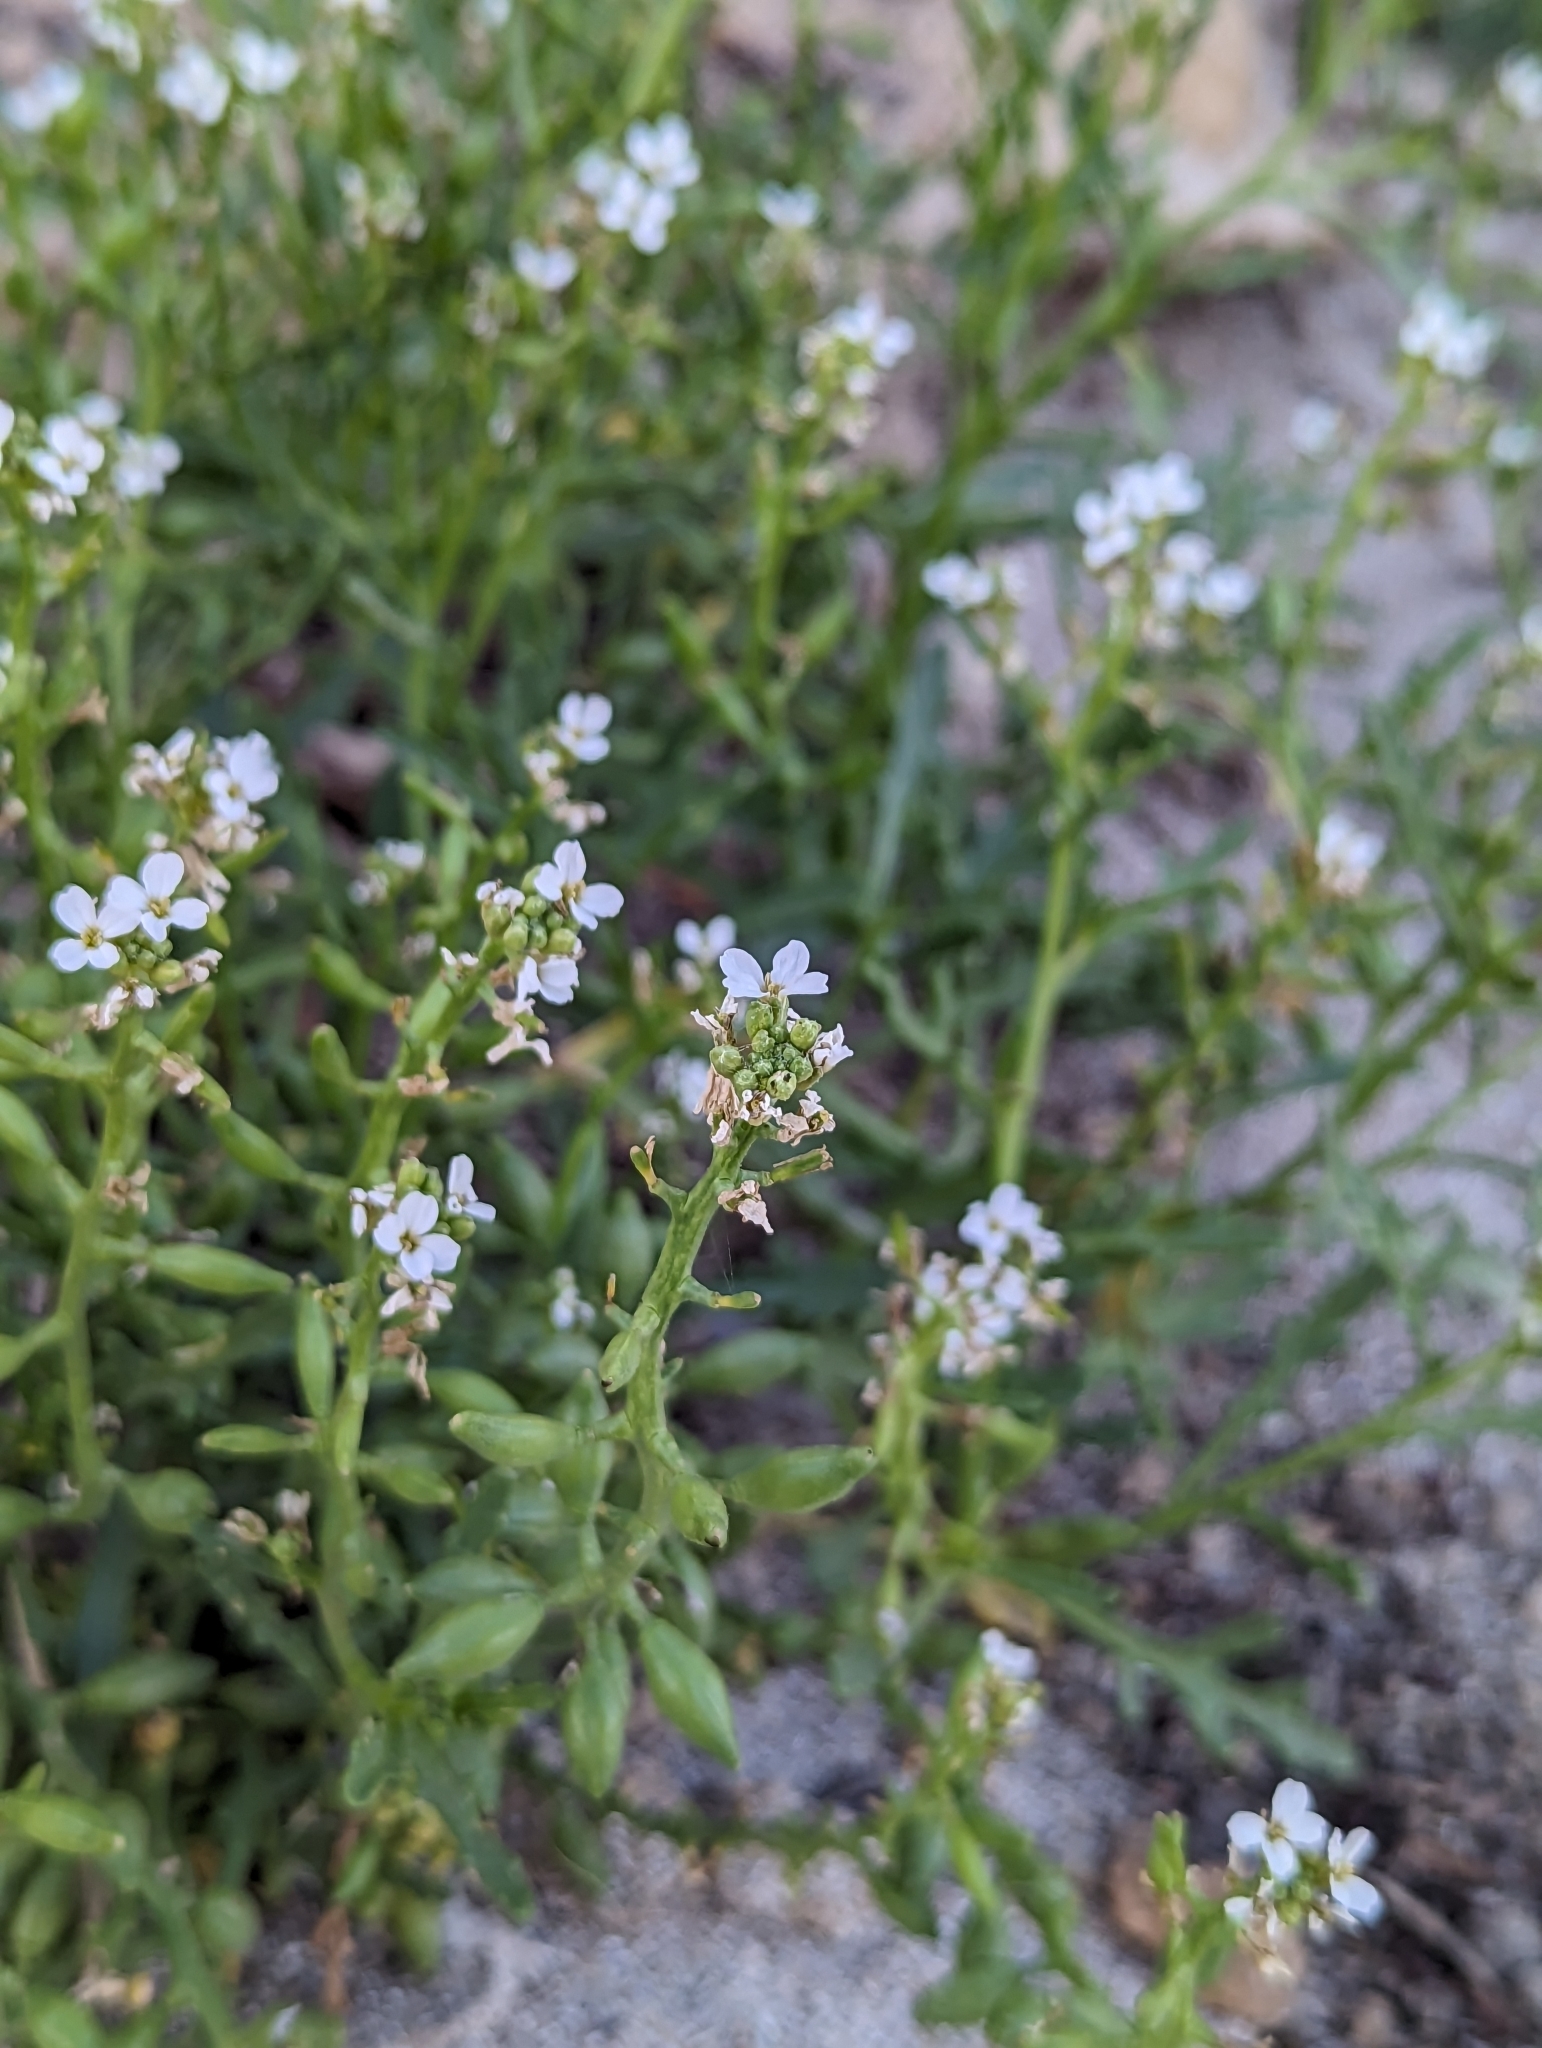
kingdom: Plantae
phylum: Tracheophyta
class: Magnoliopsida
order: Brassicales
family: Brassicaceae
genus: Cakile
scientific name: Cakile maritima
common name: Sea rocket
